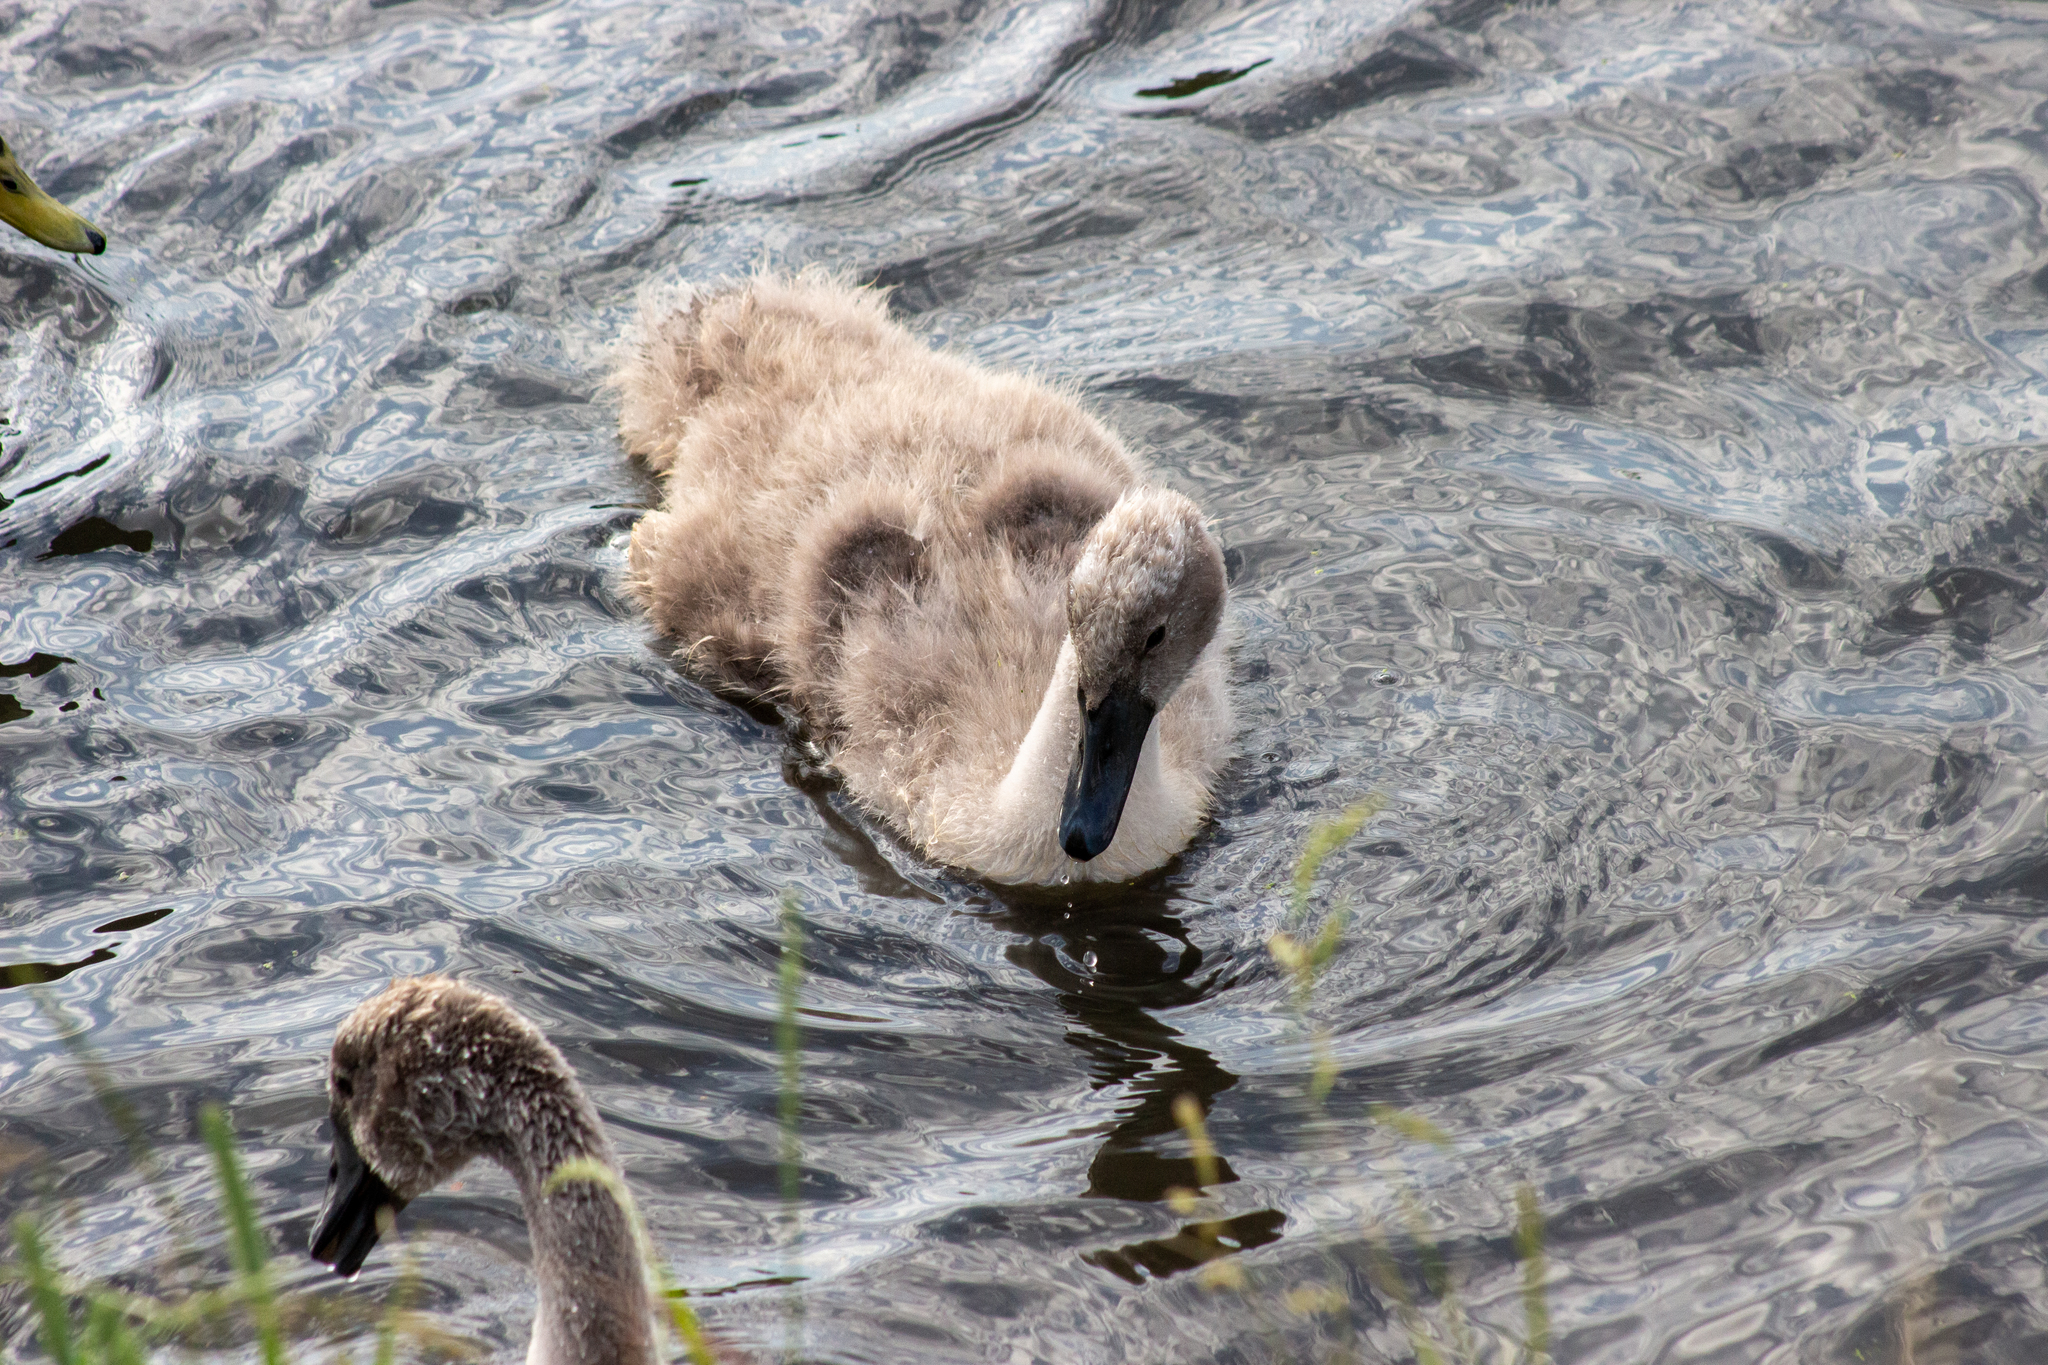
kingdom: Animalia
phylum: Chordata
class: Aves
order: Anseriformes
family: Anatidae
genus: Cygnus
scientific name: Cygnus olor
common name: Mute swan
